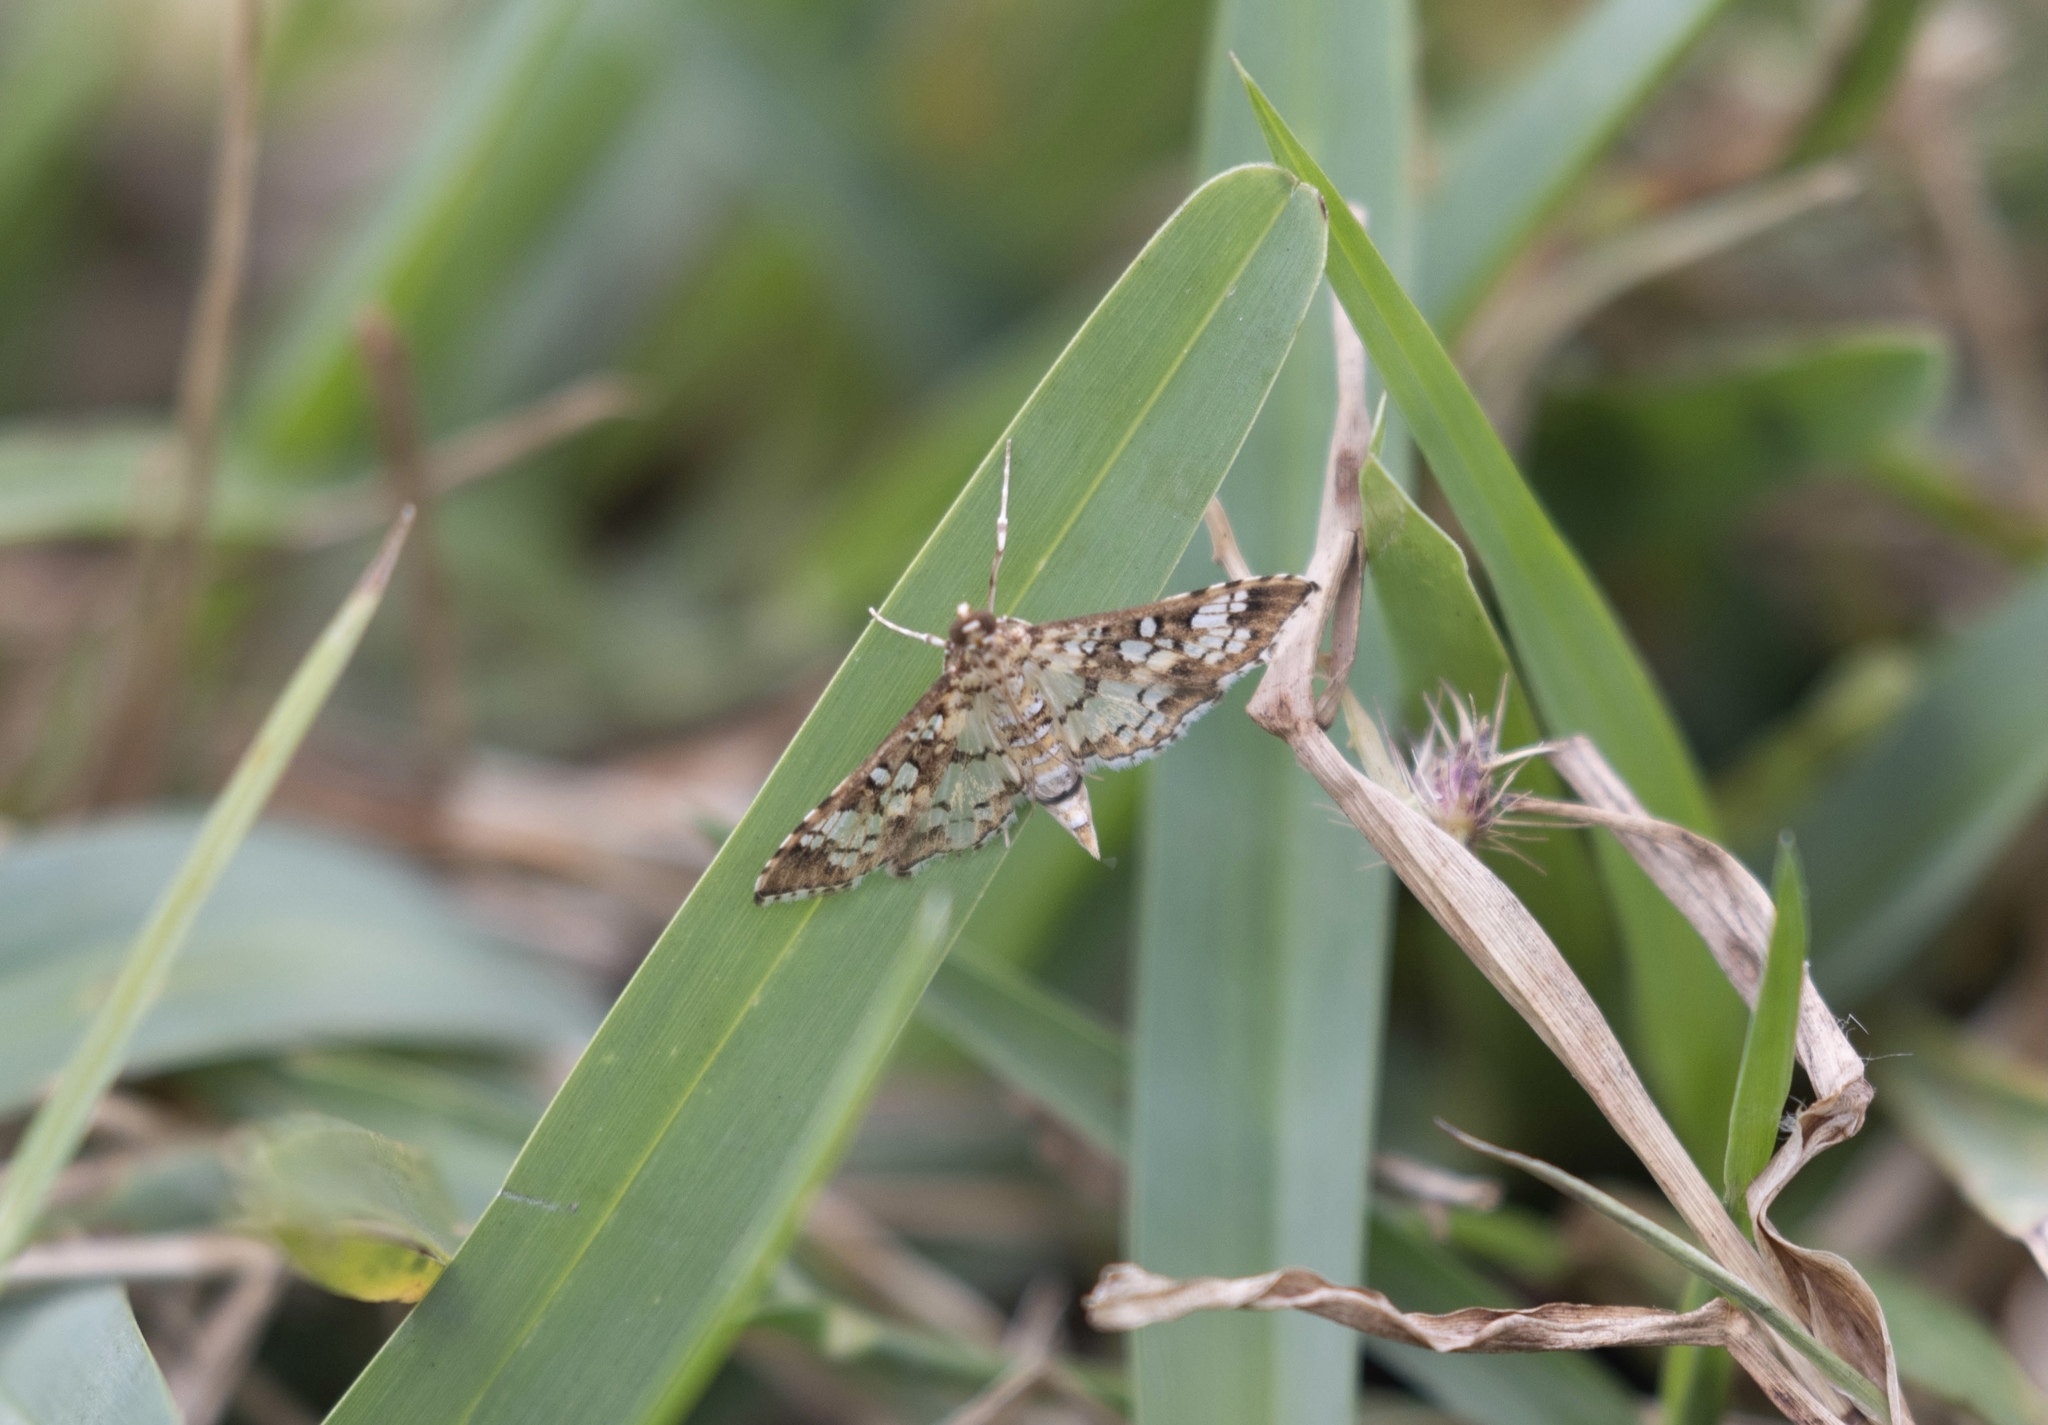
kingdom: Animalia
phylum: Arthropoda
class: Insecta
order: Lepidoptera
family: Crambidae
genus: Samea
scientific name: Samea ecclesialis
